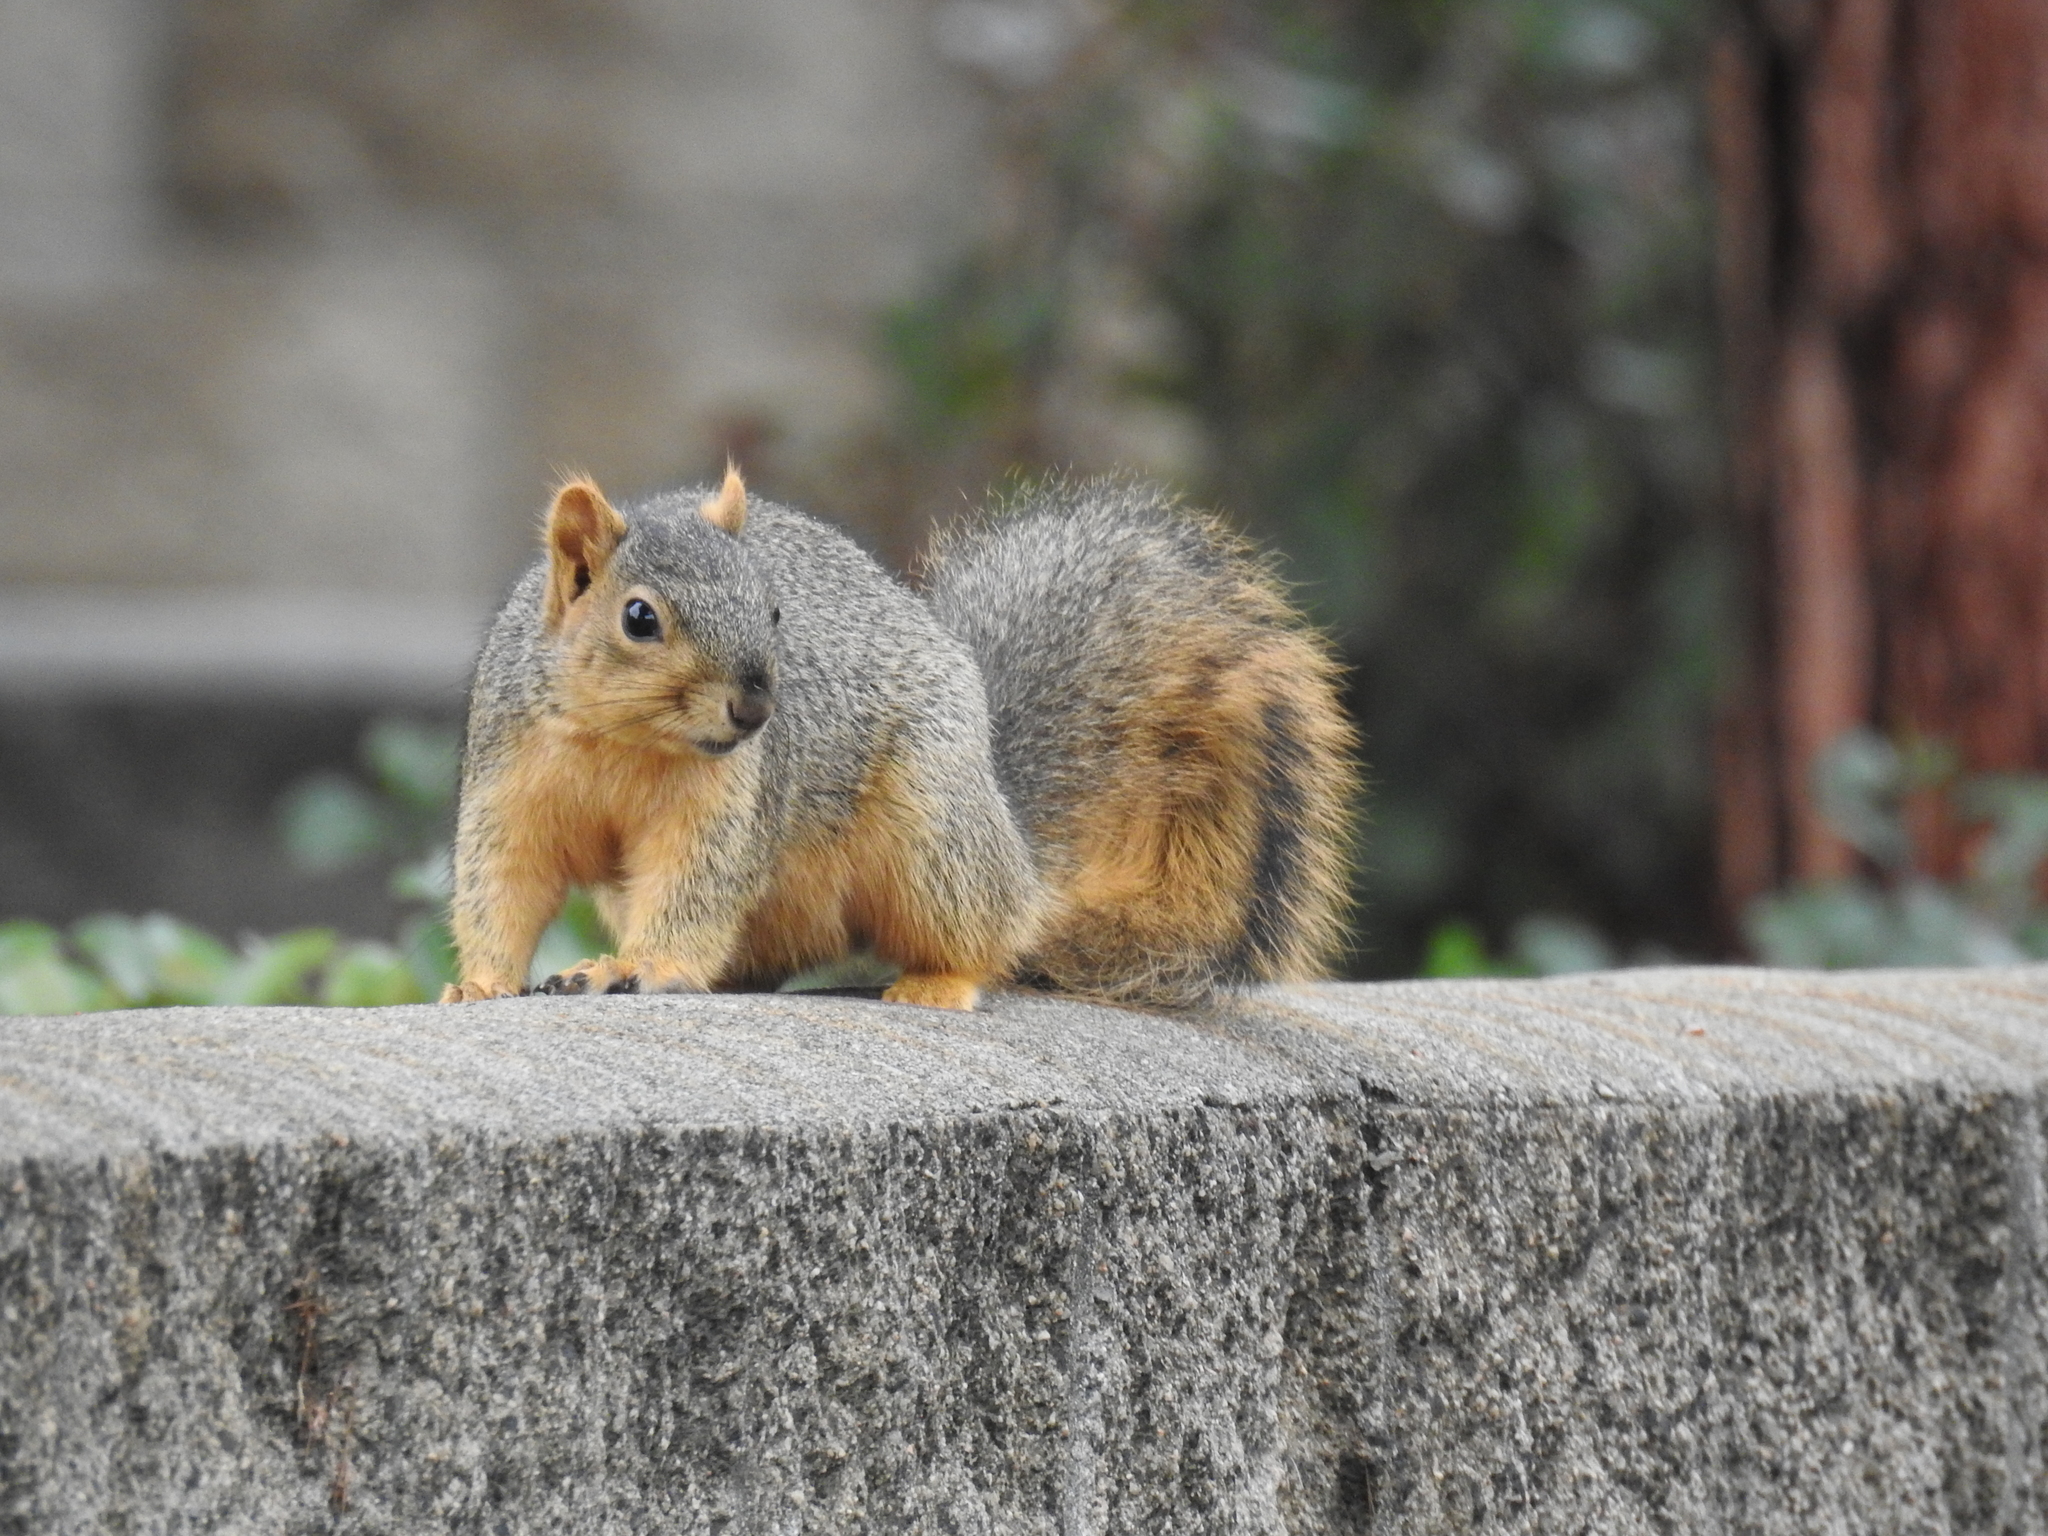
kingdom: Animalia
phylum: Chordata
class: Mammalia
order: Rodentia
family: Sciuridae
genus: Sciurus
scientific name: Sciurus niger
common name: Fox squirrel
